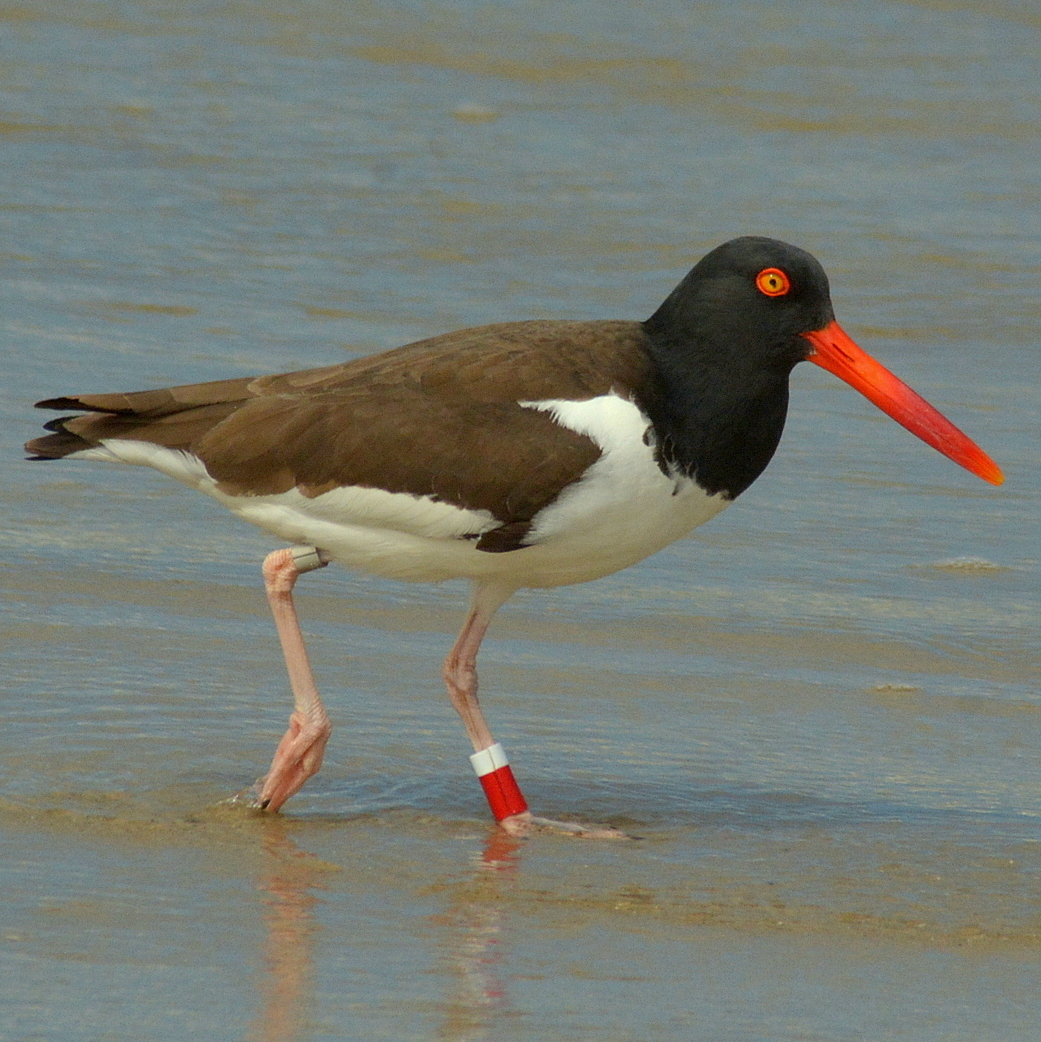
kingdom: Animalia
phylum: Chordata
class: Aves
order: Charadriiformes
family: Haematopodidae
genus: Haematopus
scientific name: Haematopus palliatus
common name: American oystercatcher
